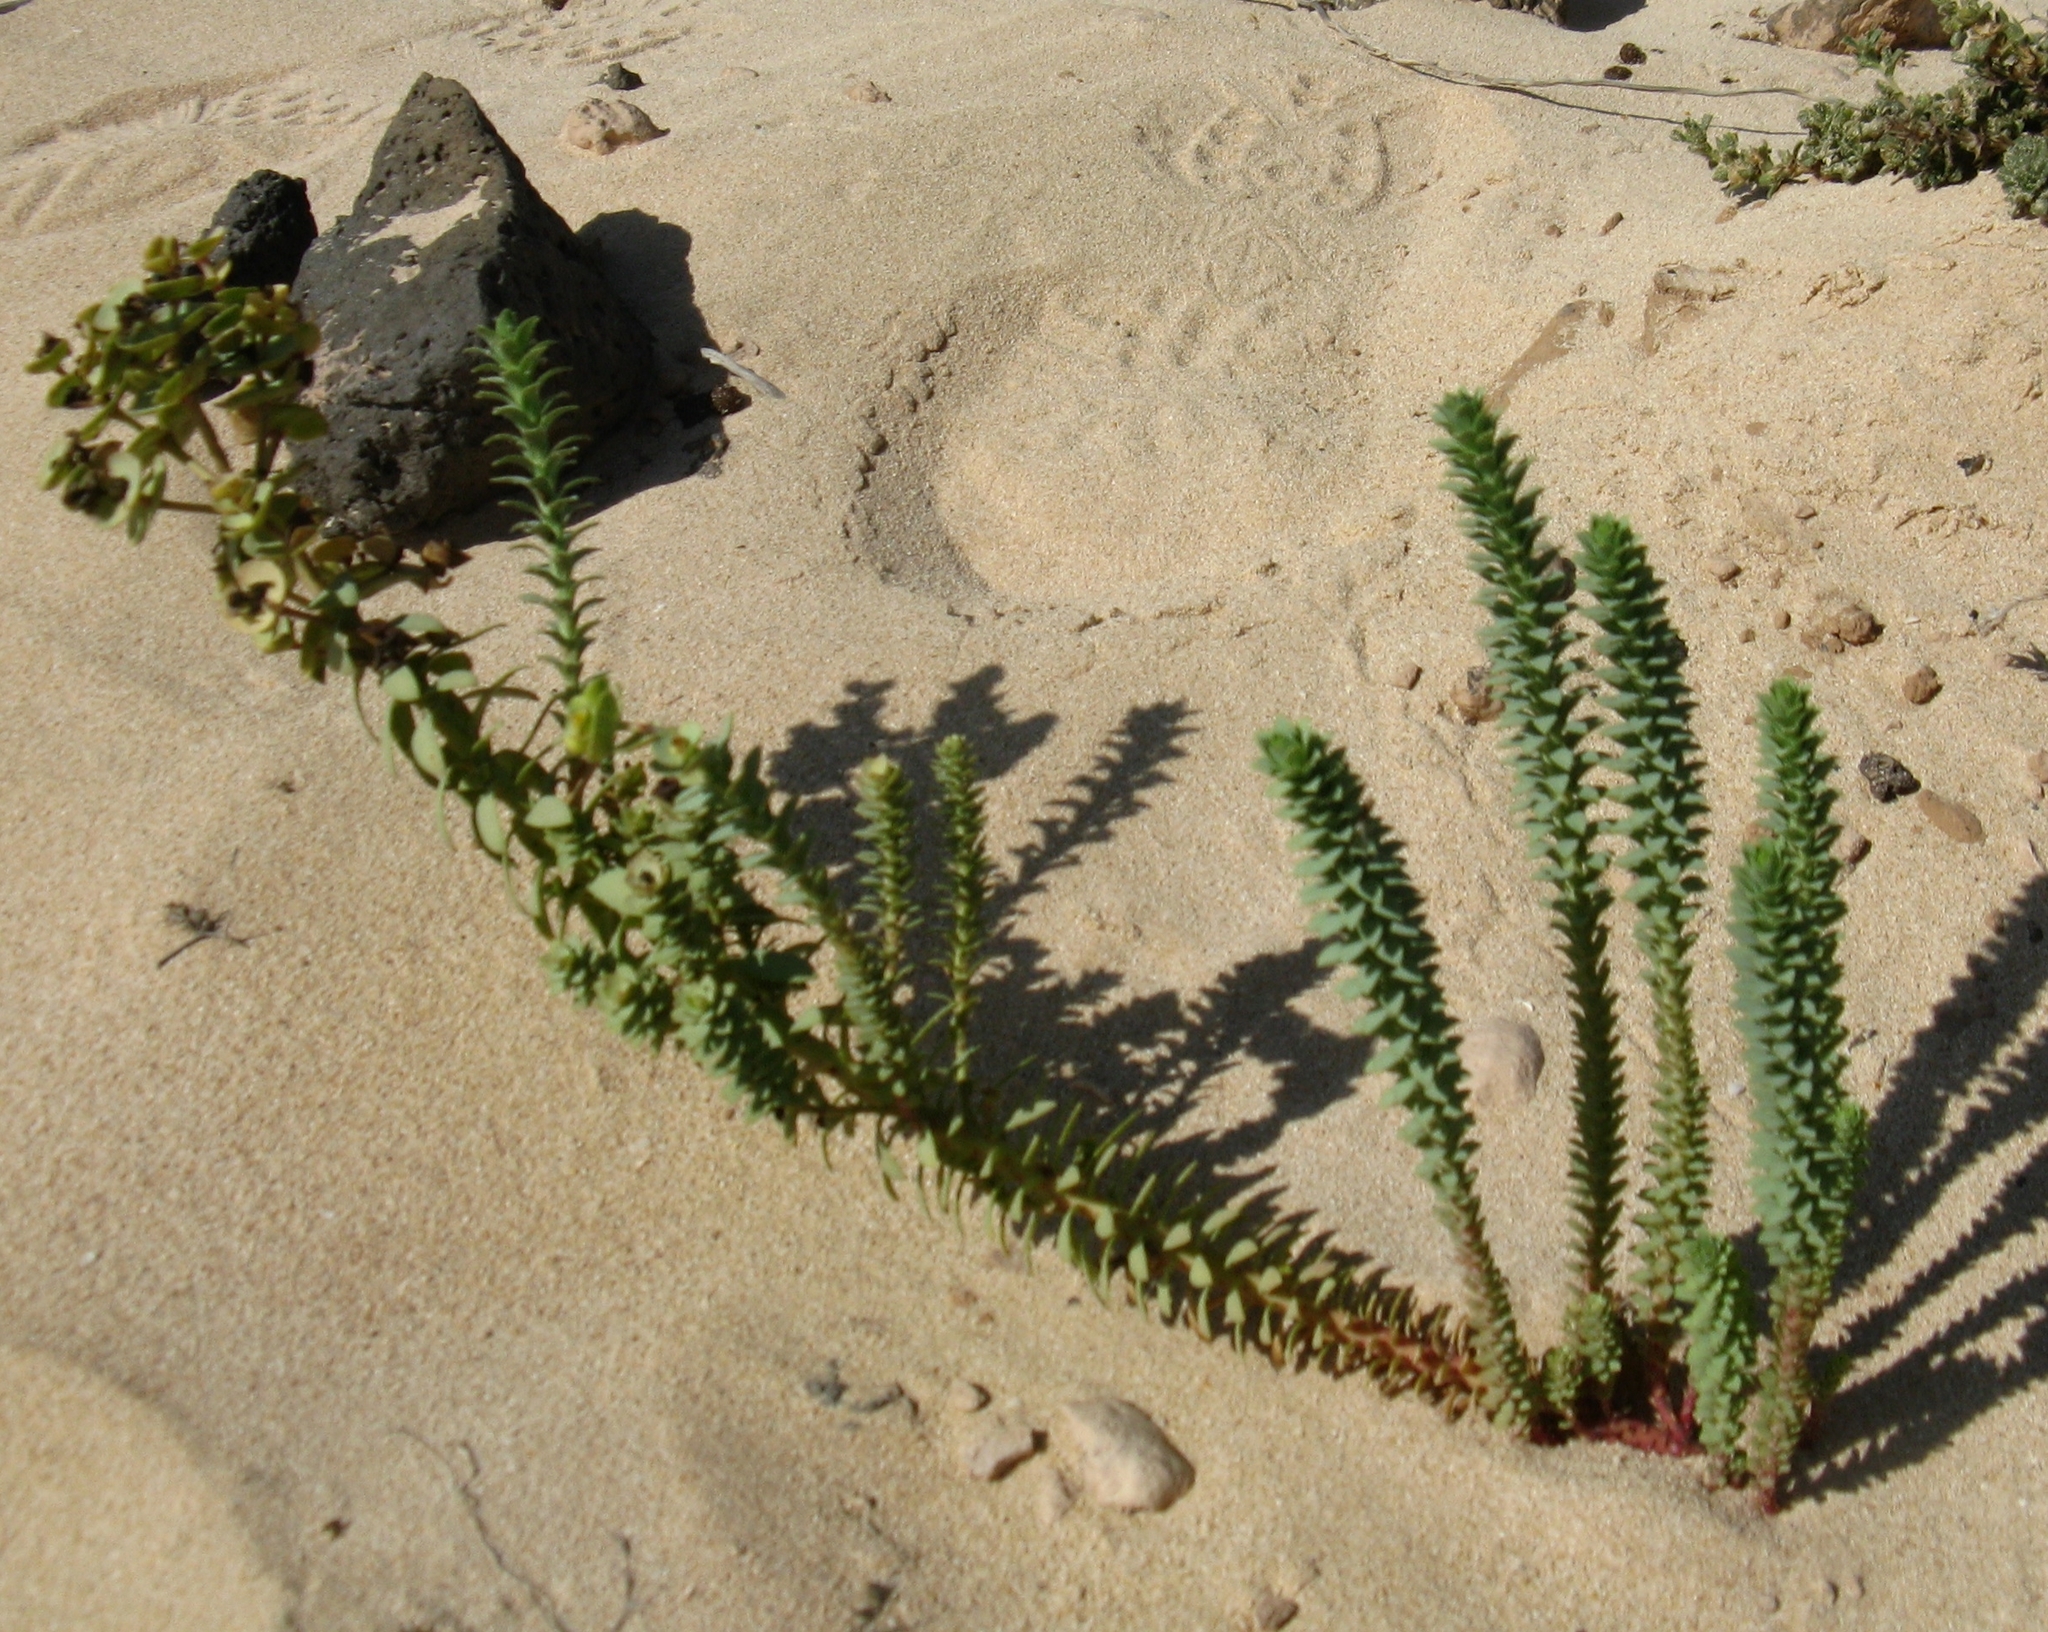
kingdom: Plantae
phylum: Tracheophyta
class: Magnoliopsida
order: Malpighiales
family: Euphorbiaceae
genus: Euphorbia
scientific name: Euphorbia paralias
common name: Sea spurge
